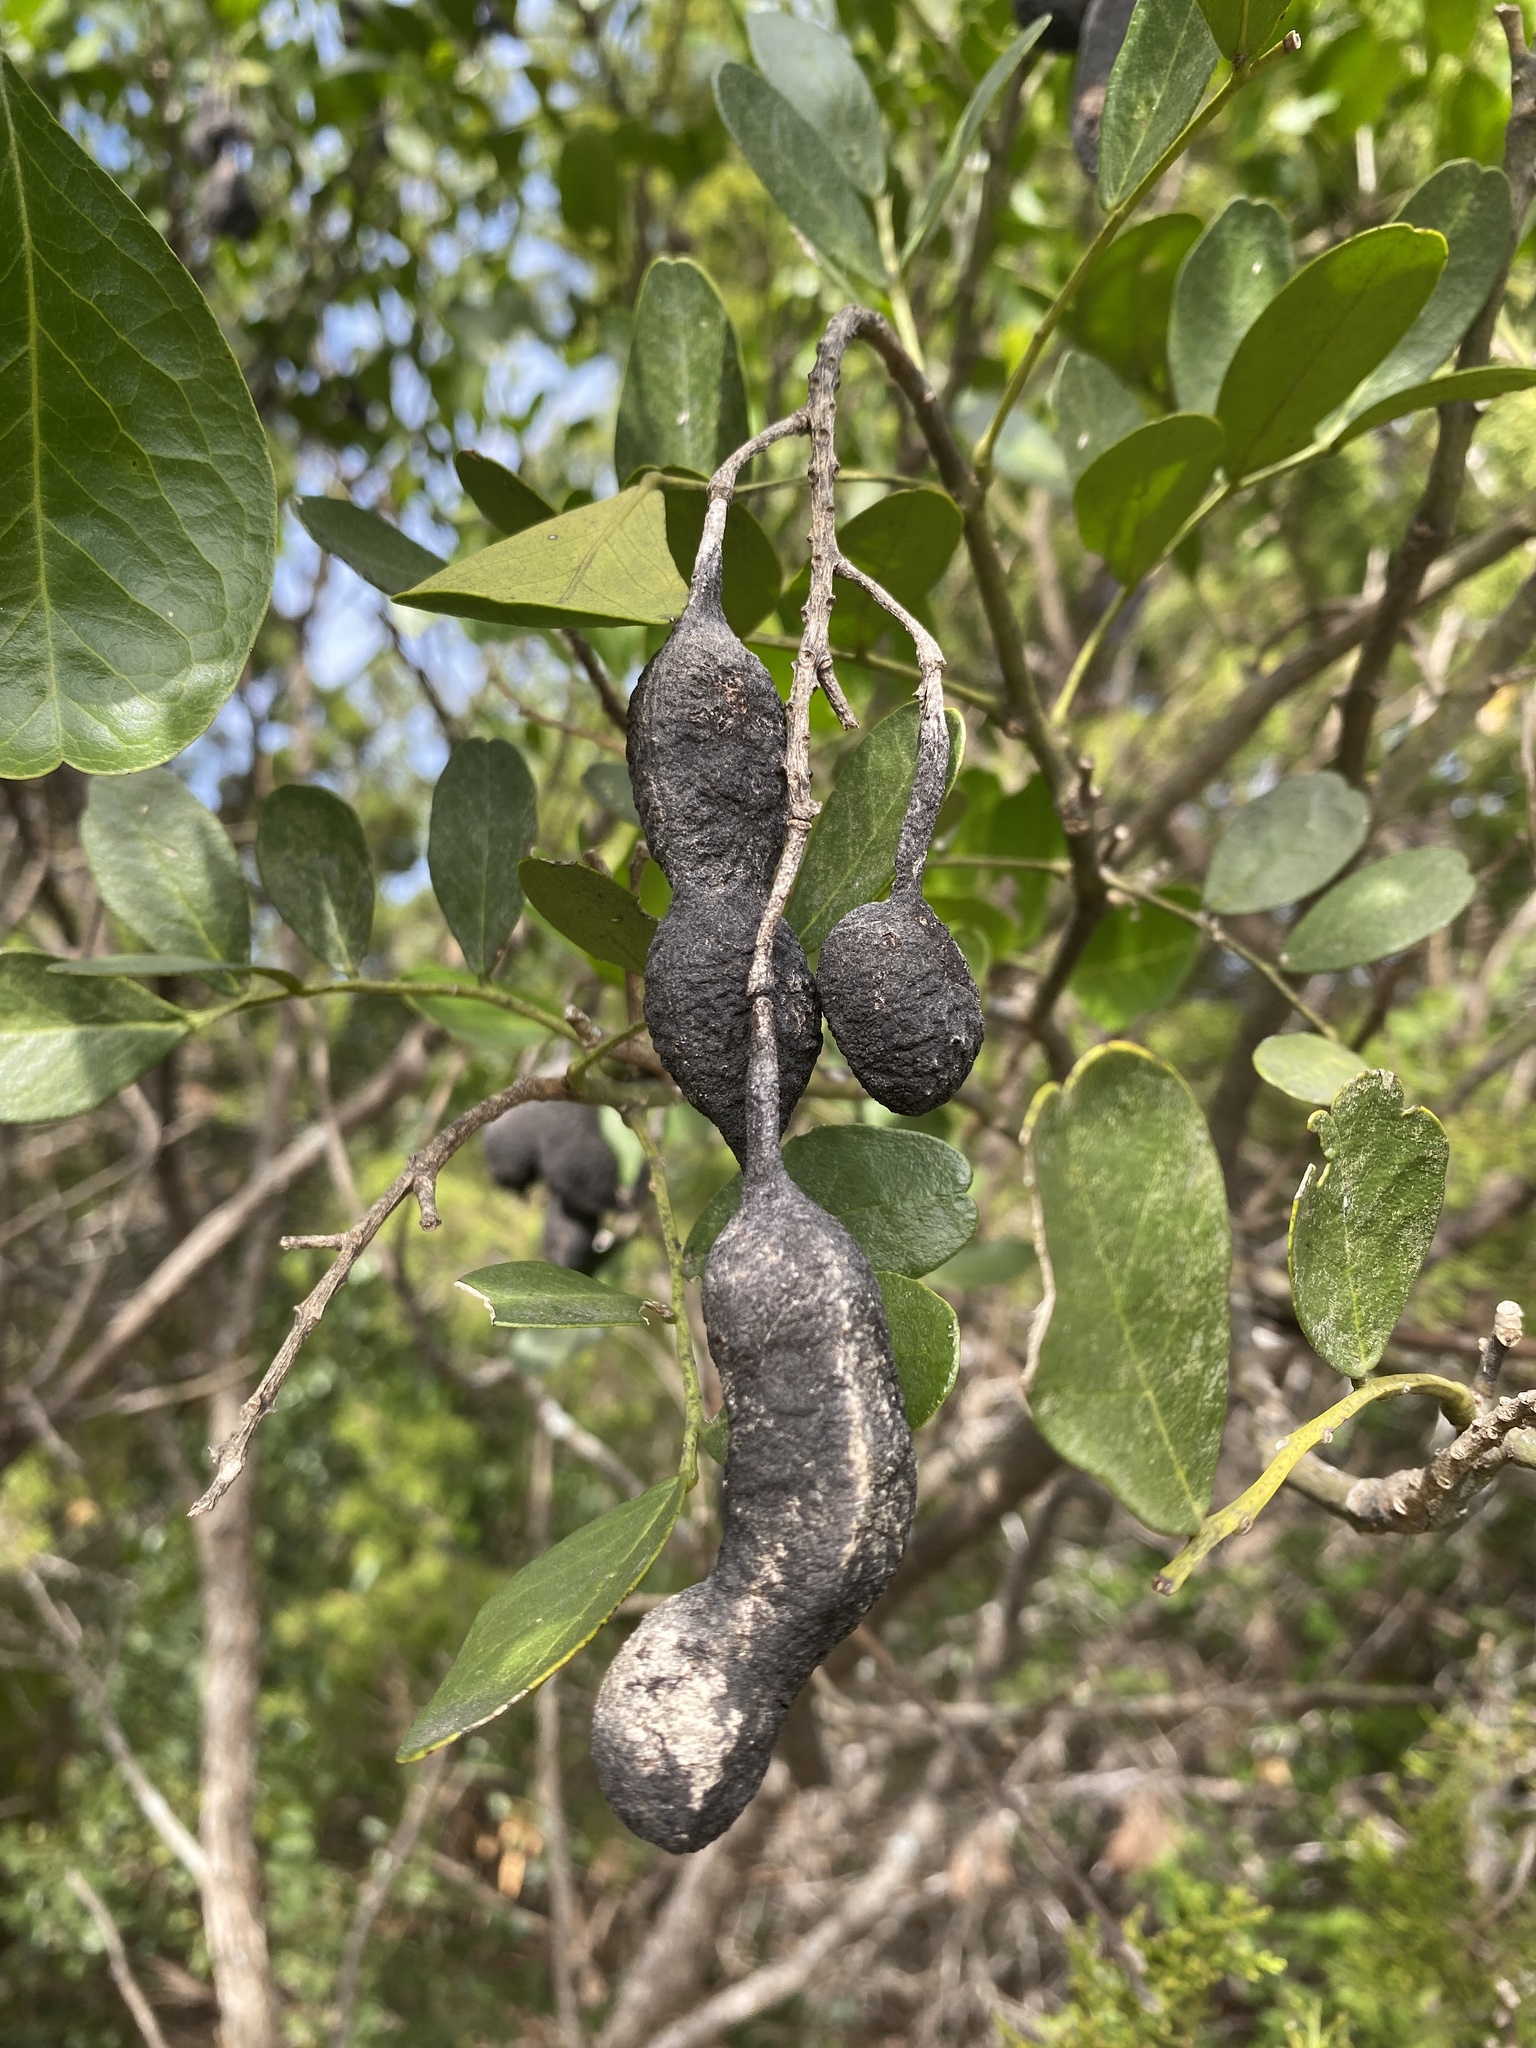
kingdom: Plantae
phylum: Tracheophyta
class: Magnoliopsida
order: Fabales
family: Fabaceae
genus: Dermatophyllum
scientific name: Dermatophyllum secundiflorum
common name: Texas-mountain-laurel
